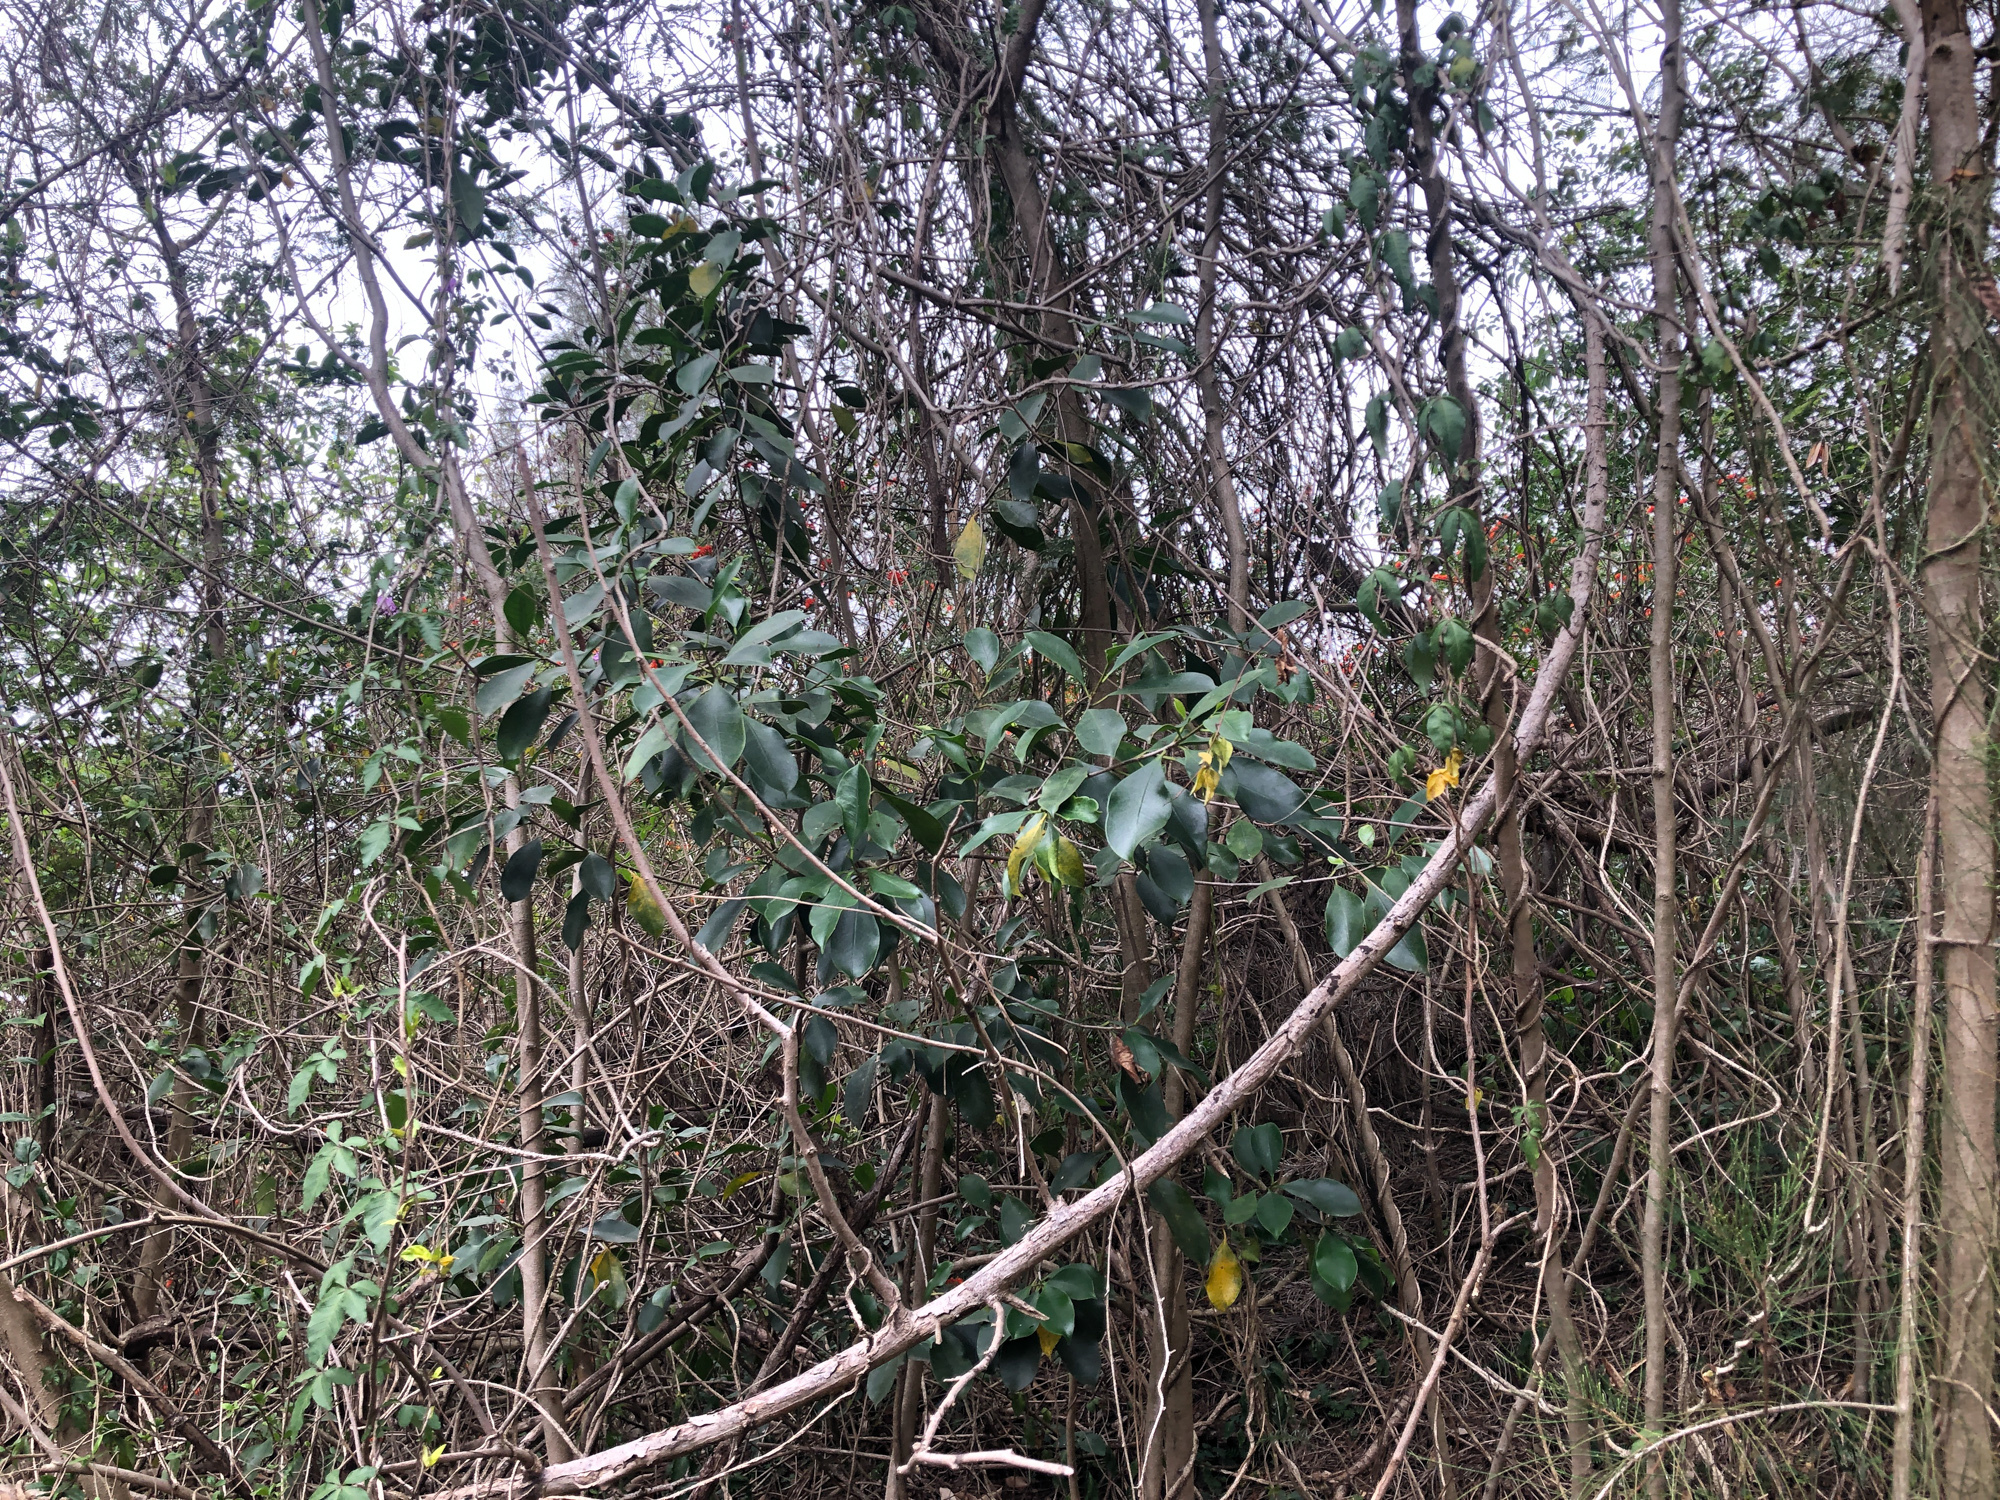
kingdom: Plantae
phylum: Tracheophyta
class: Magnoliopsida
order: Rosales
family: Moraceae
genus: Ficus
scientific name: Ficus microcarpa
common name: Chinese banyan
